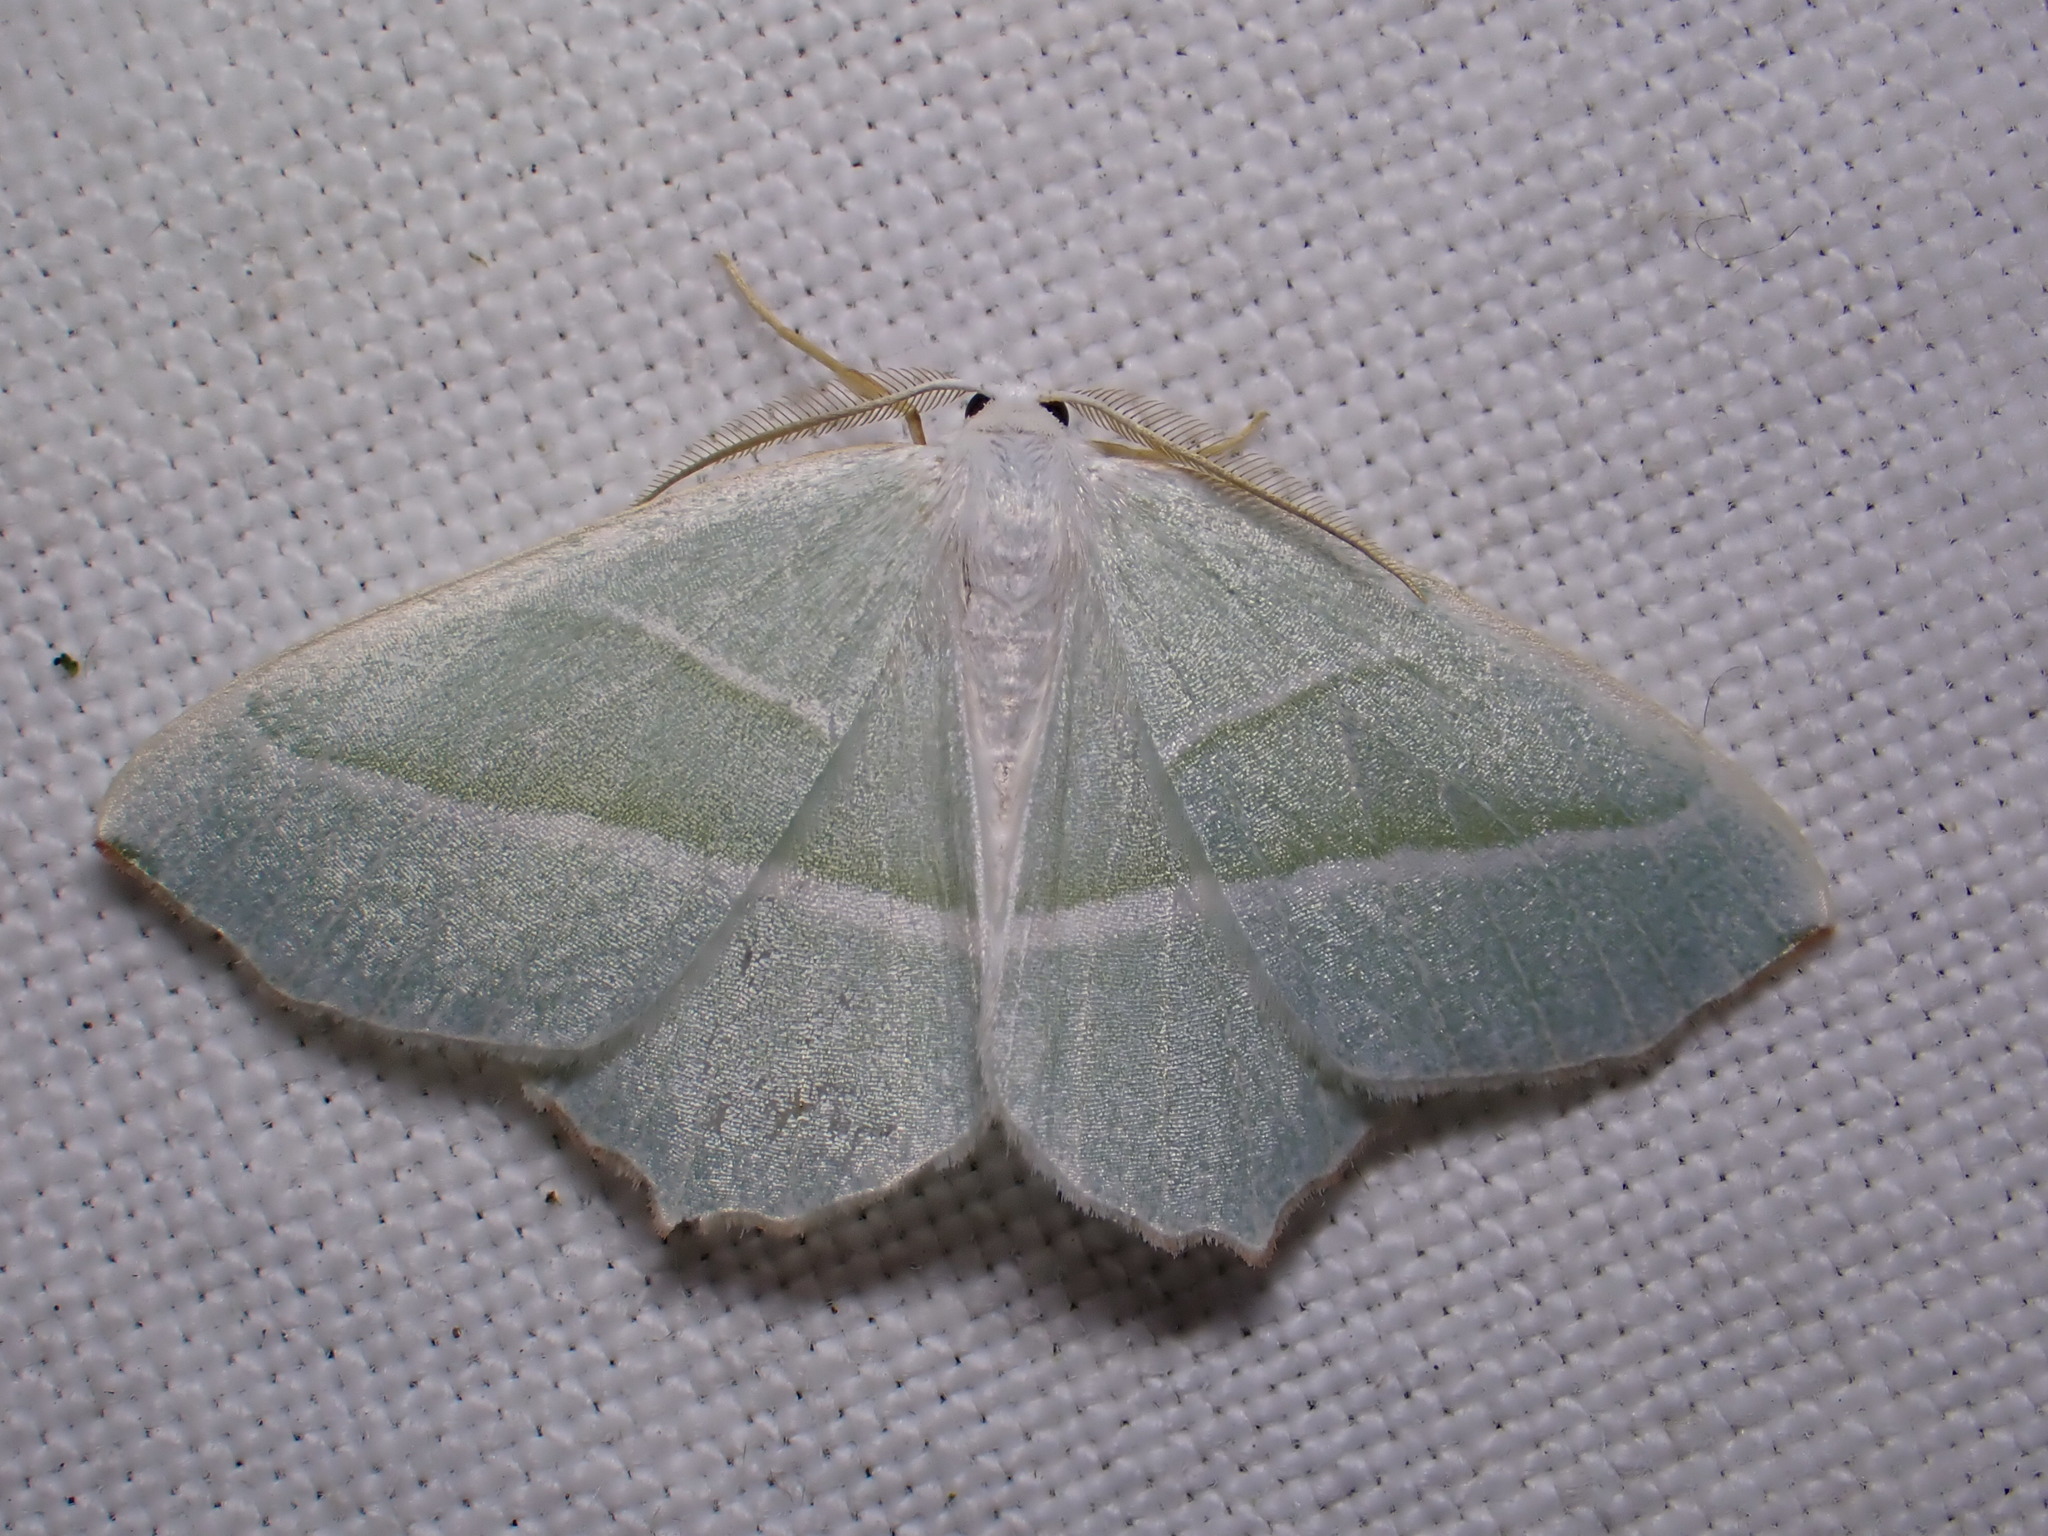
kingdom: Animalia
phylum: Arthropoda
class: Insecta
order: Lepidoptera
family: Geometridae
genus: Campaea
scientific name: Campaea margaritaria
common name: Light emerald
